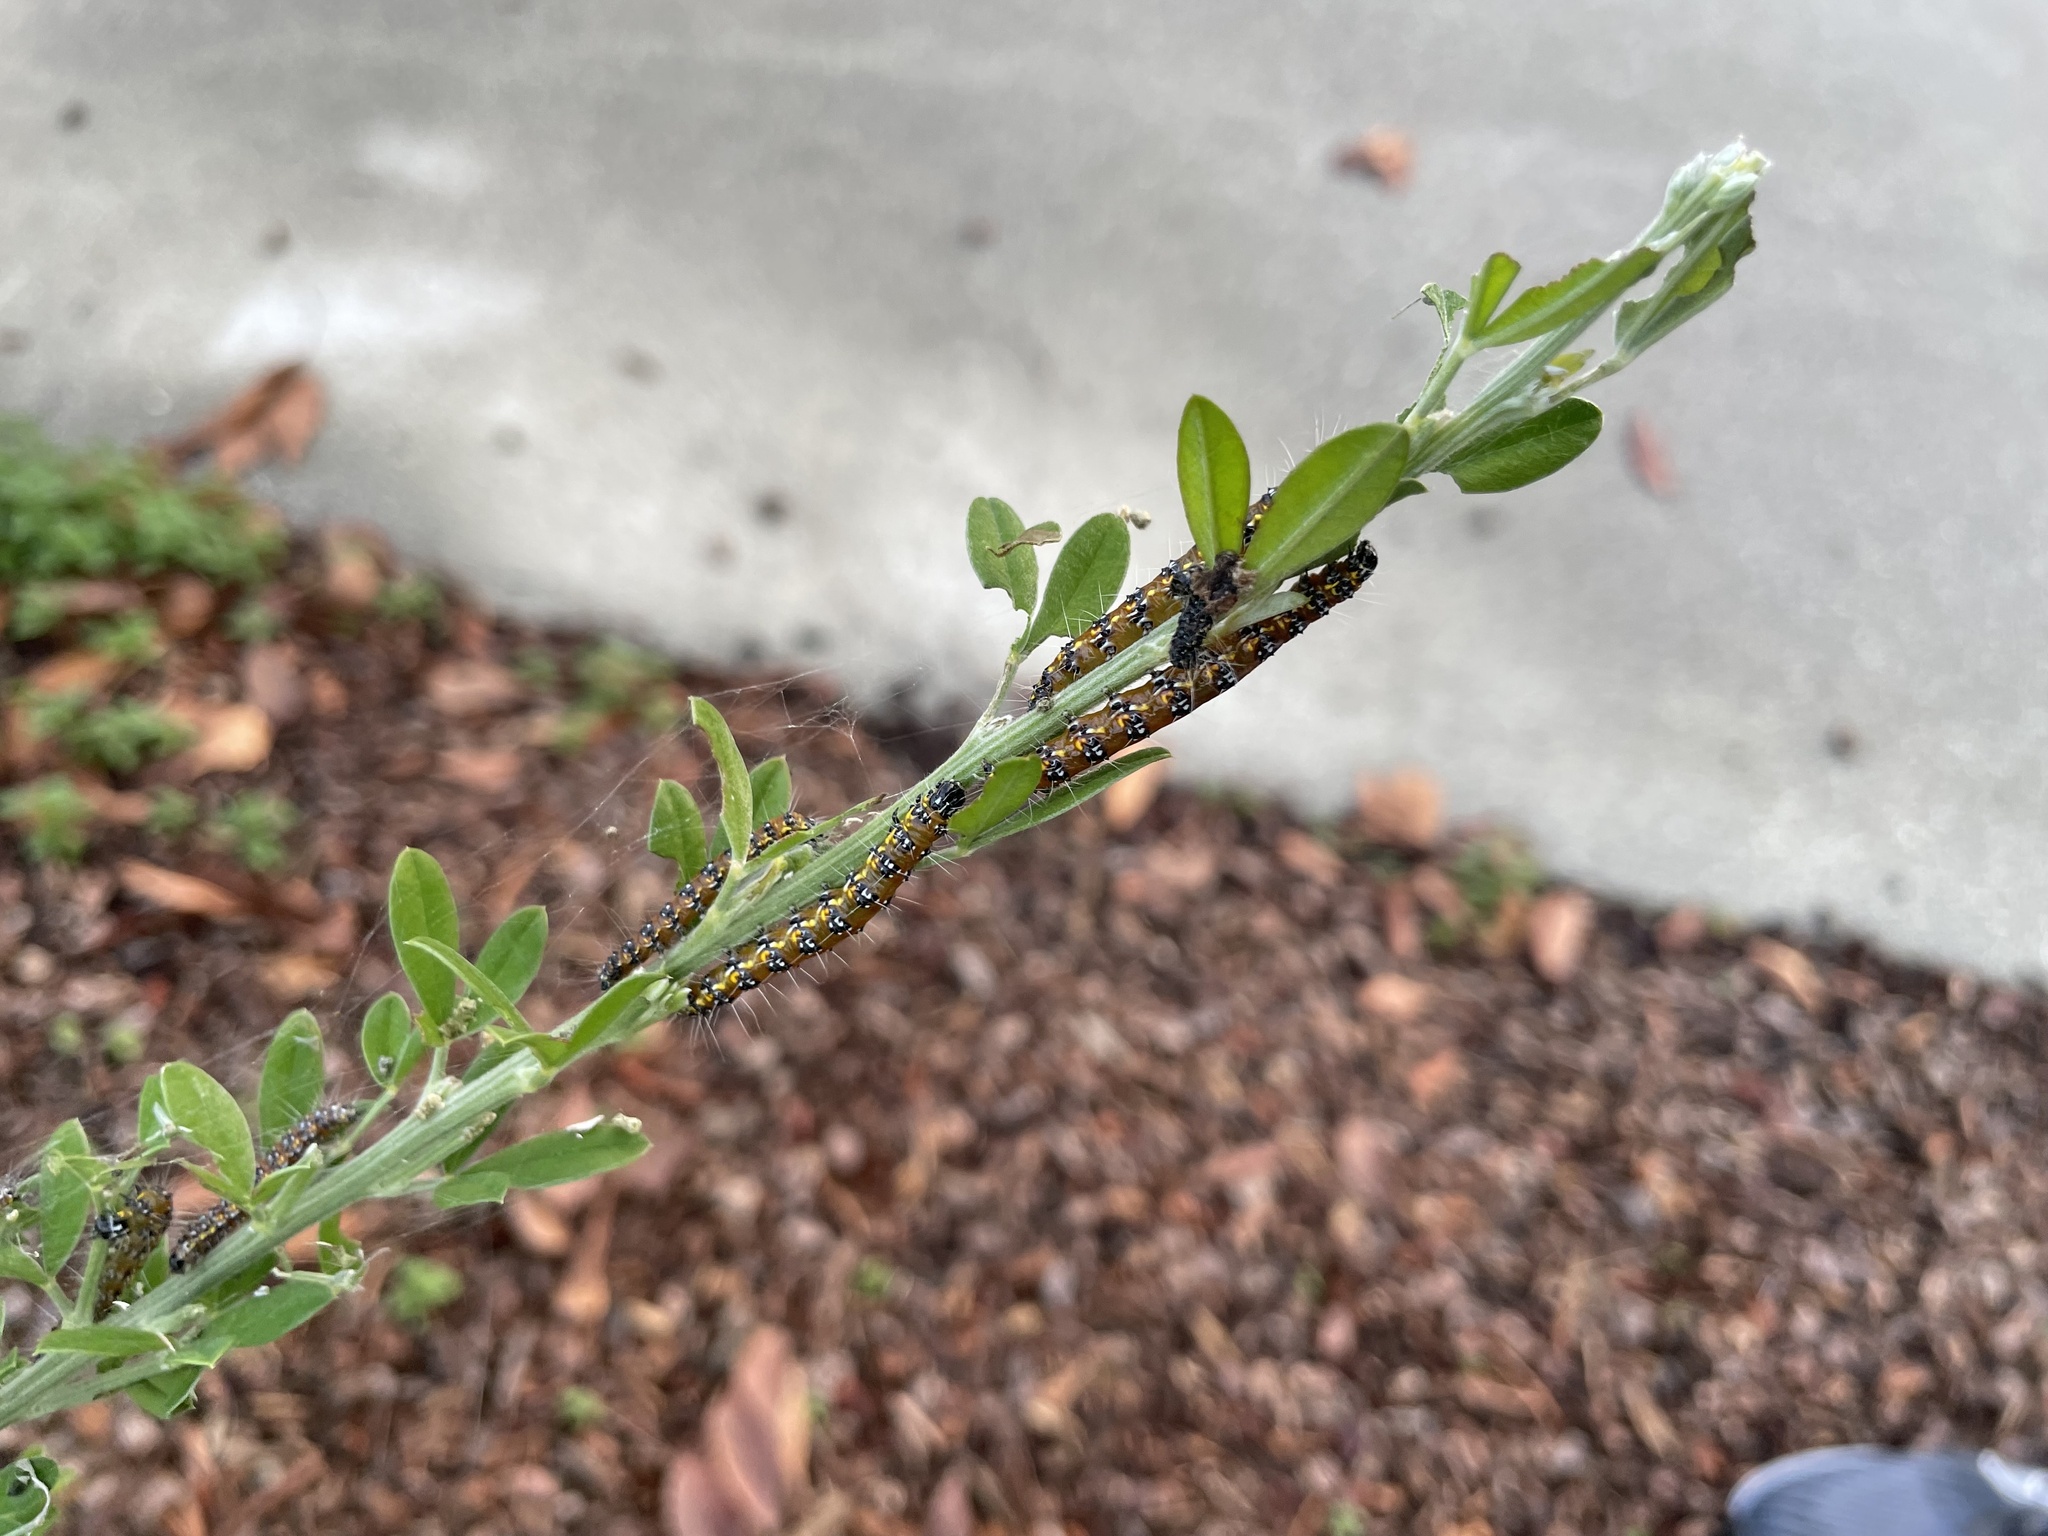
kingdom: Animalia
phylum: Arthropoda
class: Insecta
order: Lepidoptera
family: Crambidae
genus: Uresiphita
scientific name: Uresiphita reversalis
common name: Genista broom moth
